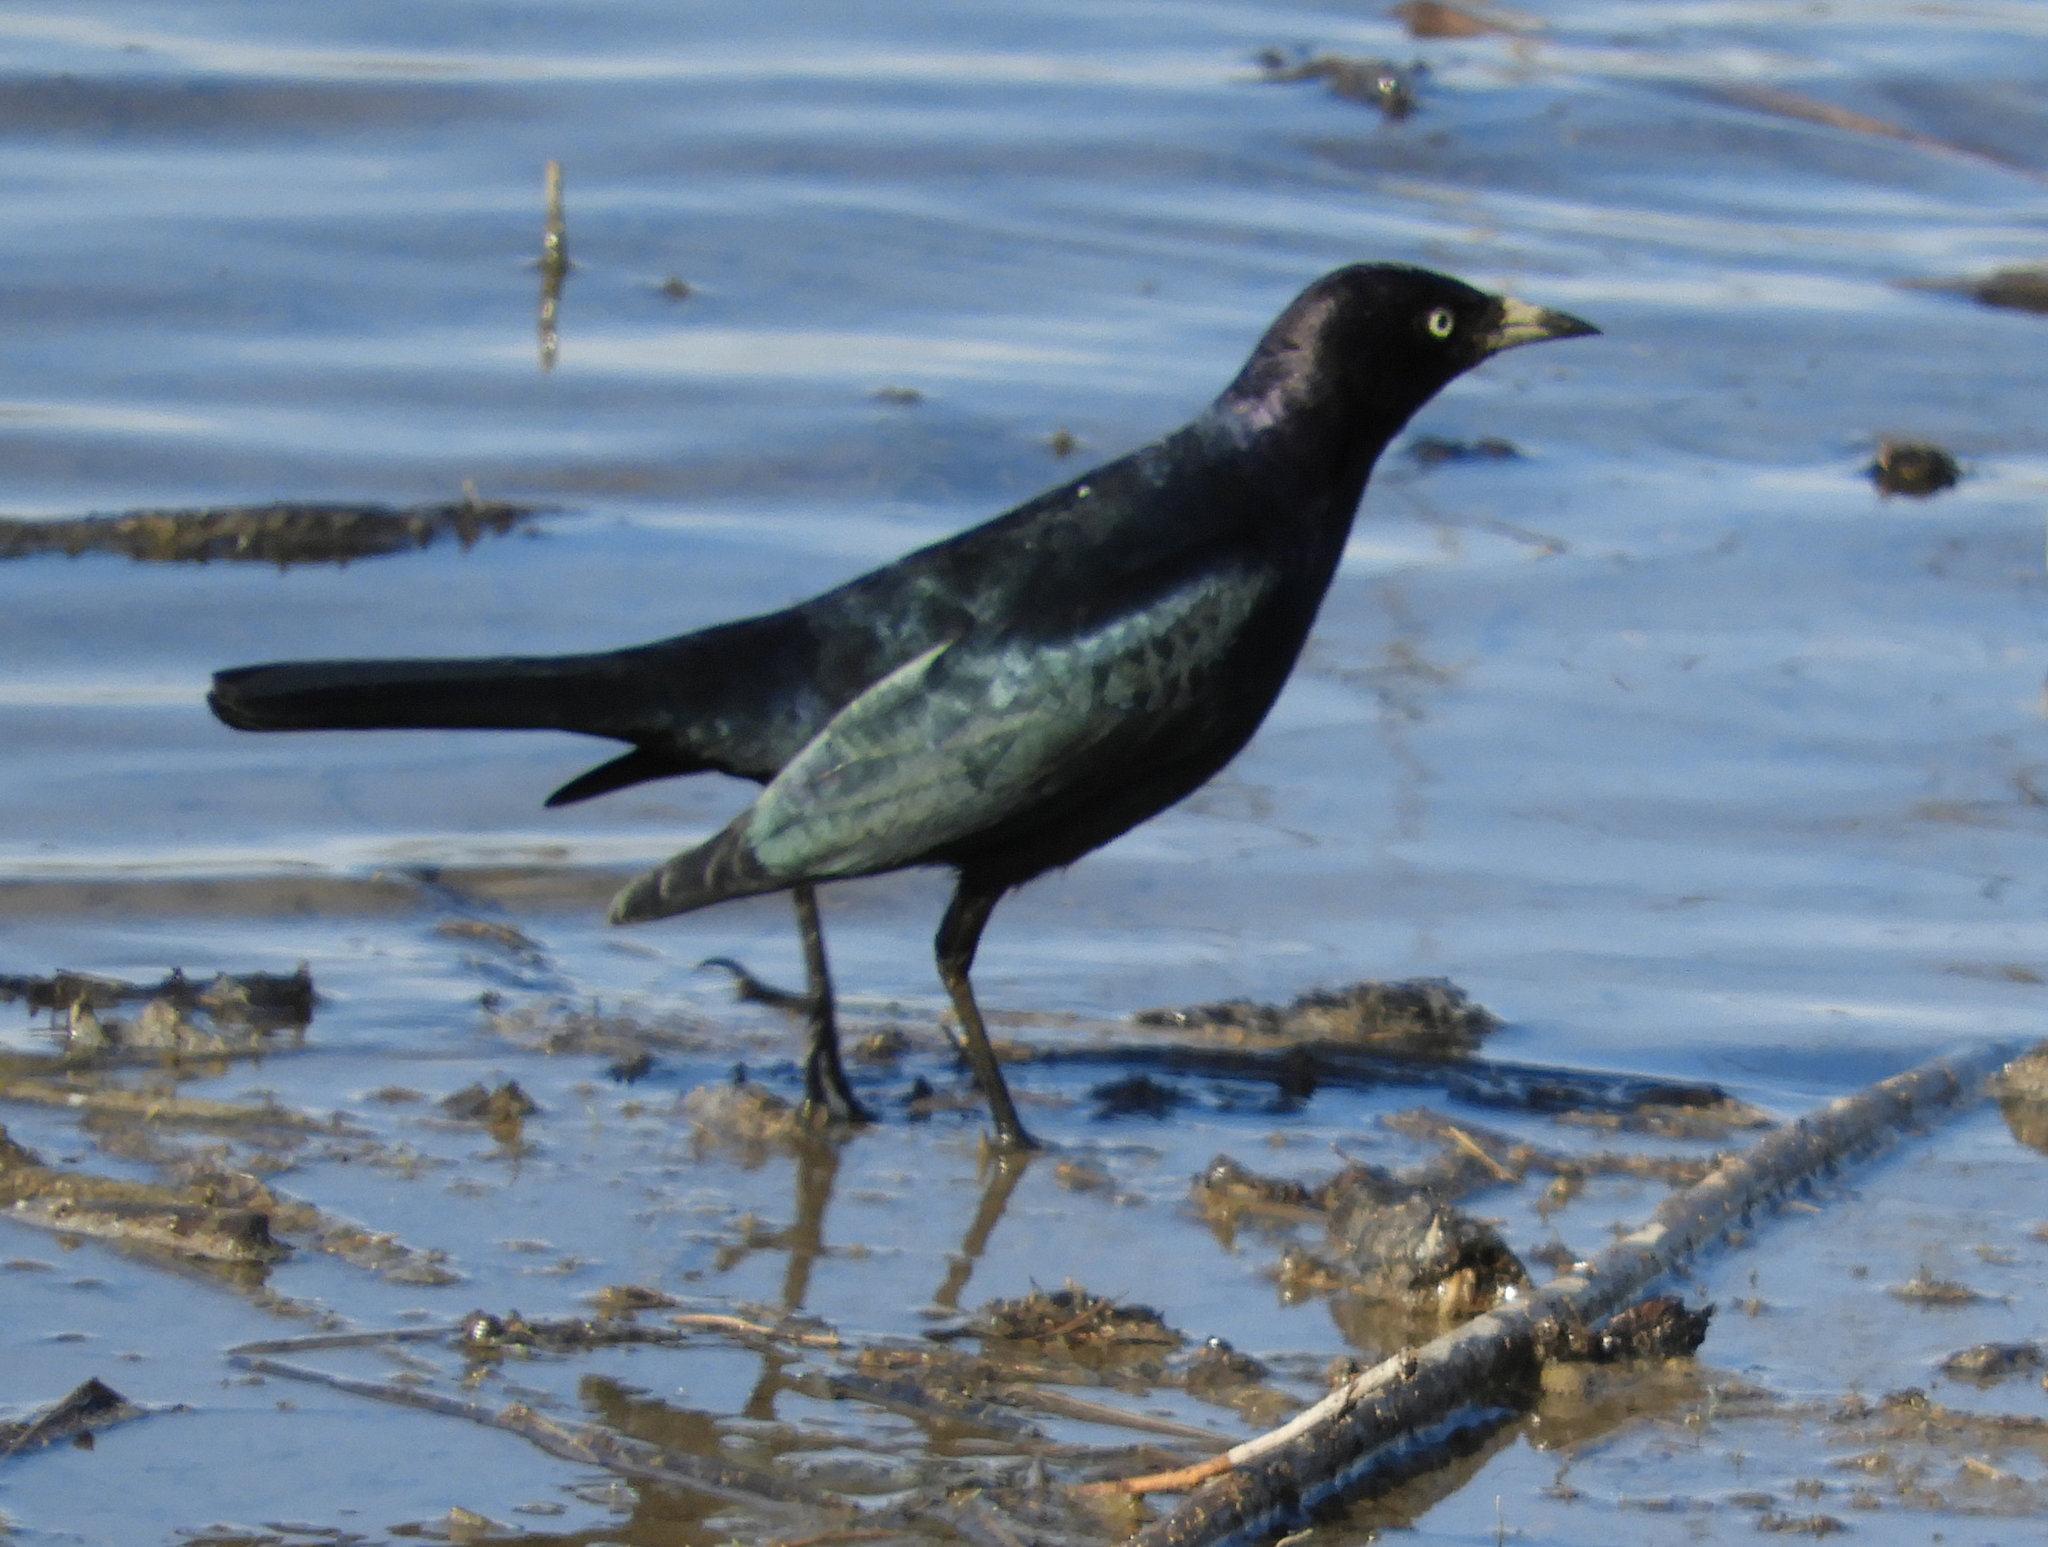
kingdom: Animalia
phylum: Chordata
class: Aves
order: Passeriformes
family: Icteridae
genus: Euphagus
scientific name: Euphagus cyanocephalus
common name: Brewer's blackbird
